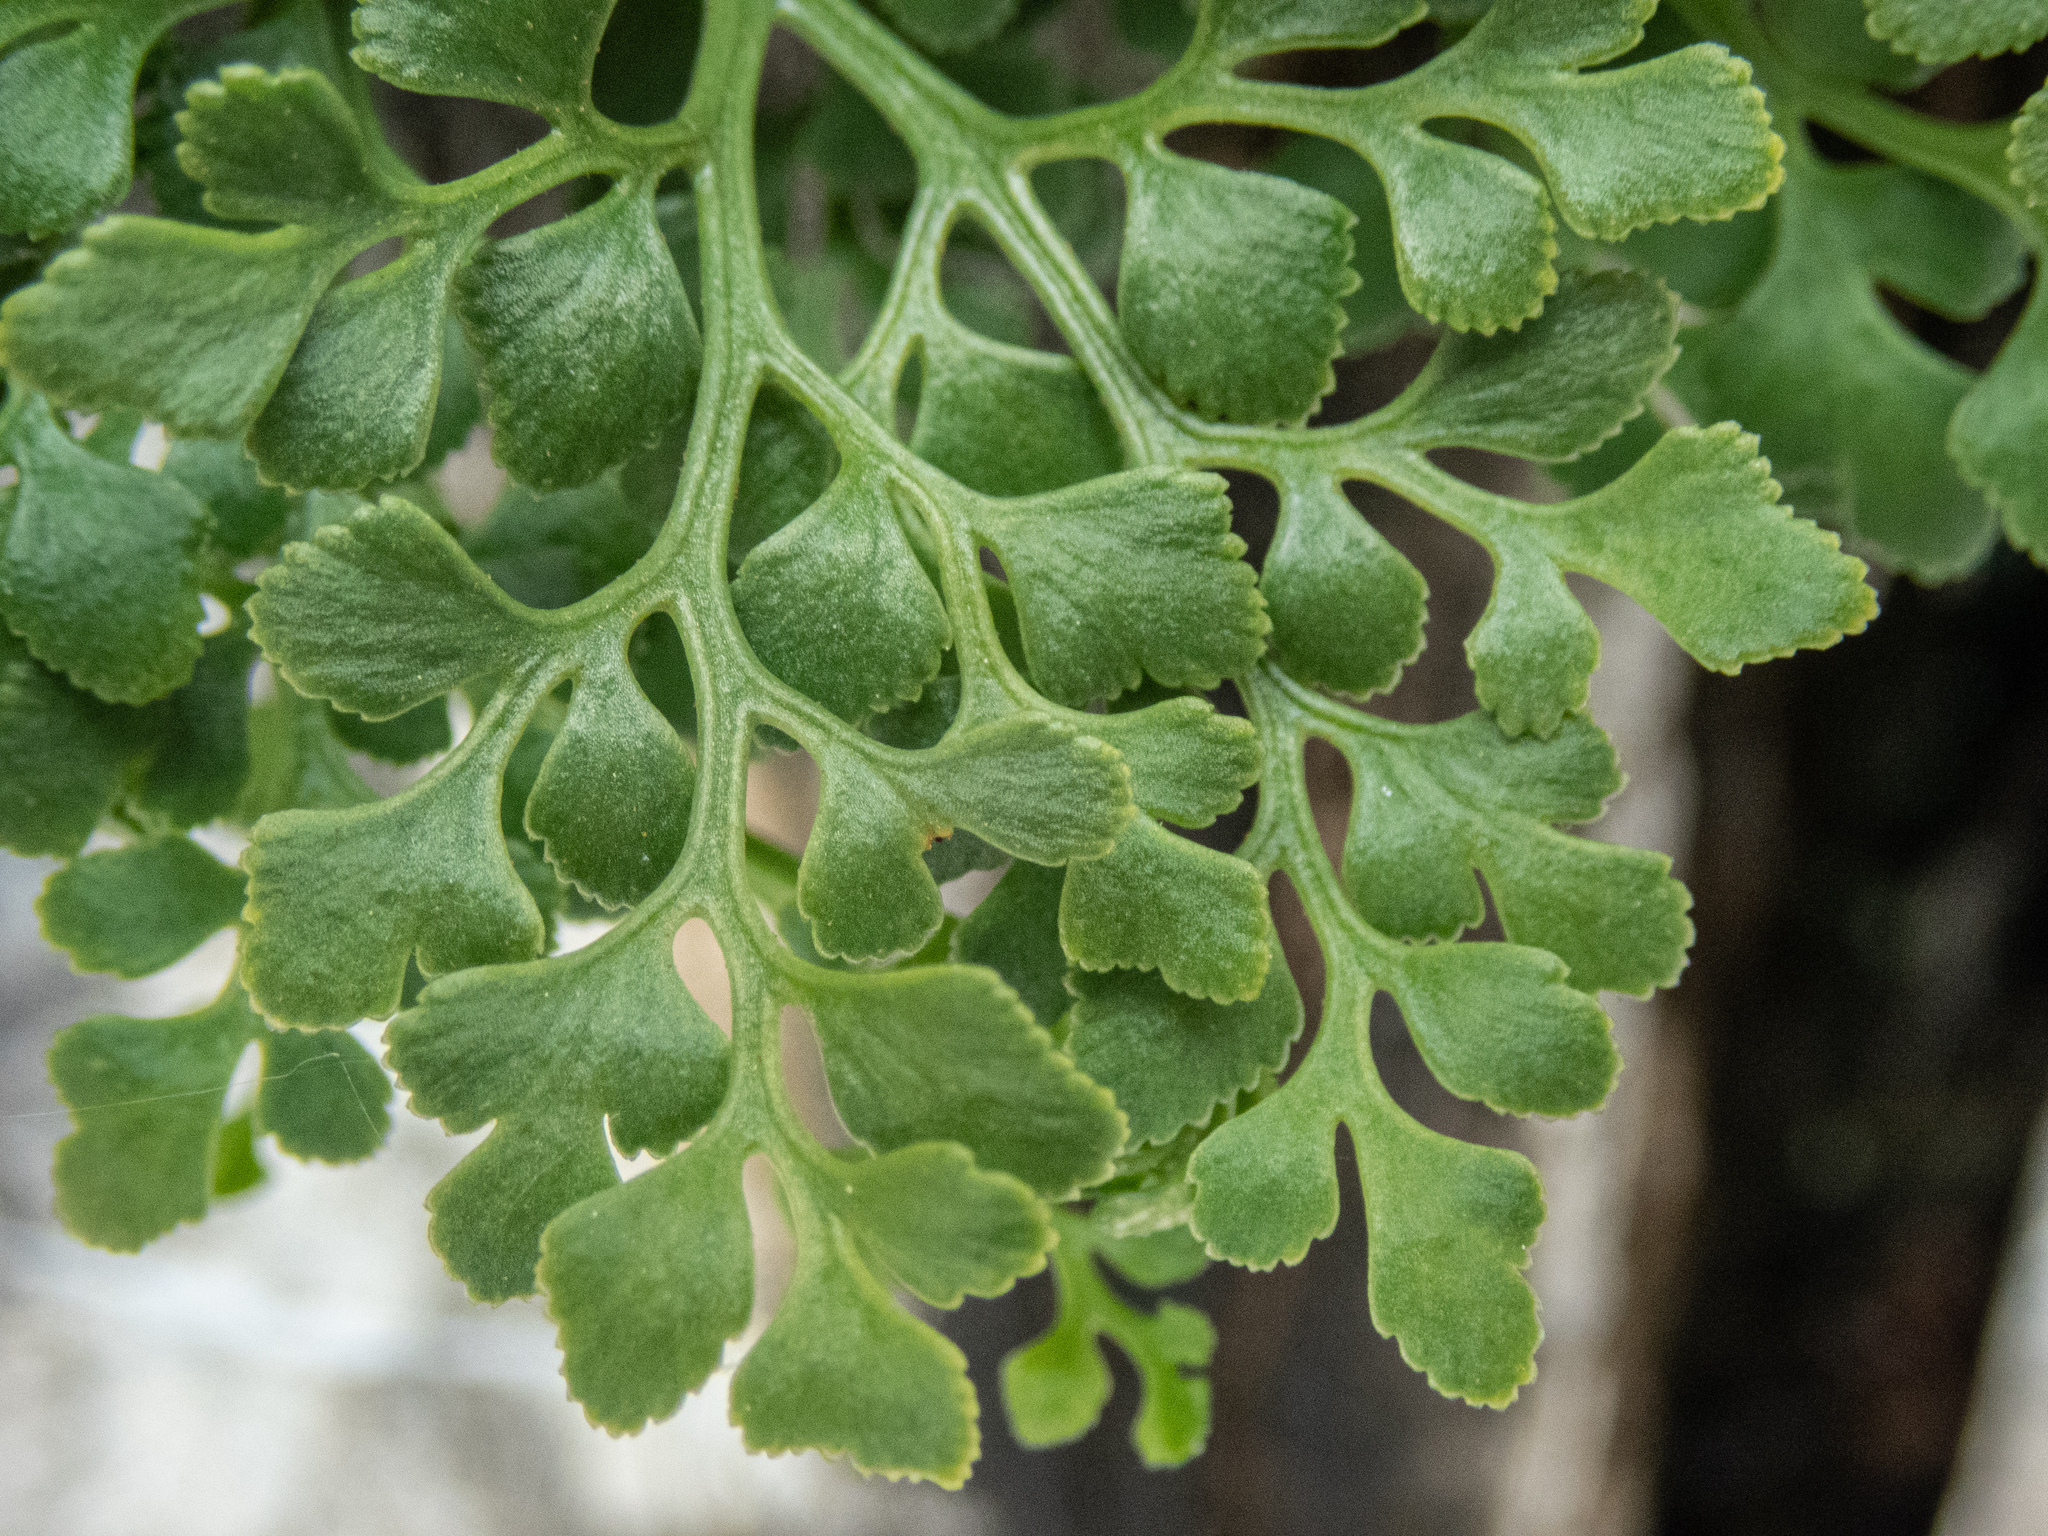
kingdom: Plantae
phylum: Tracheophyta
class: Polypodiopsida
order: Polypodiales
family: Aspleniaceae
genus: Asplenium
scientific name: Asplenium ruta-muraria
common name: Wall-rue
